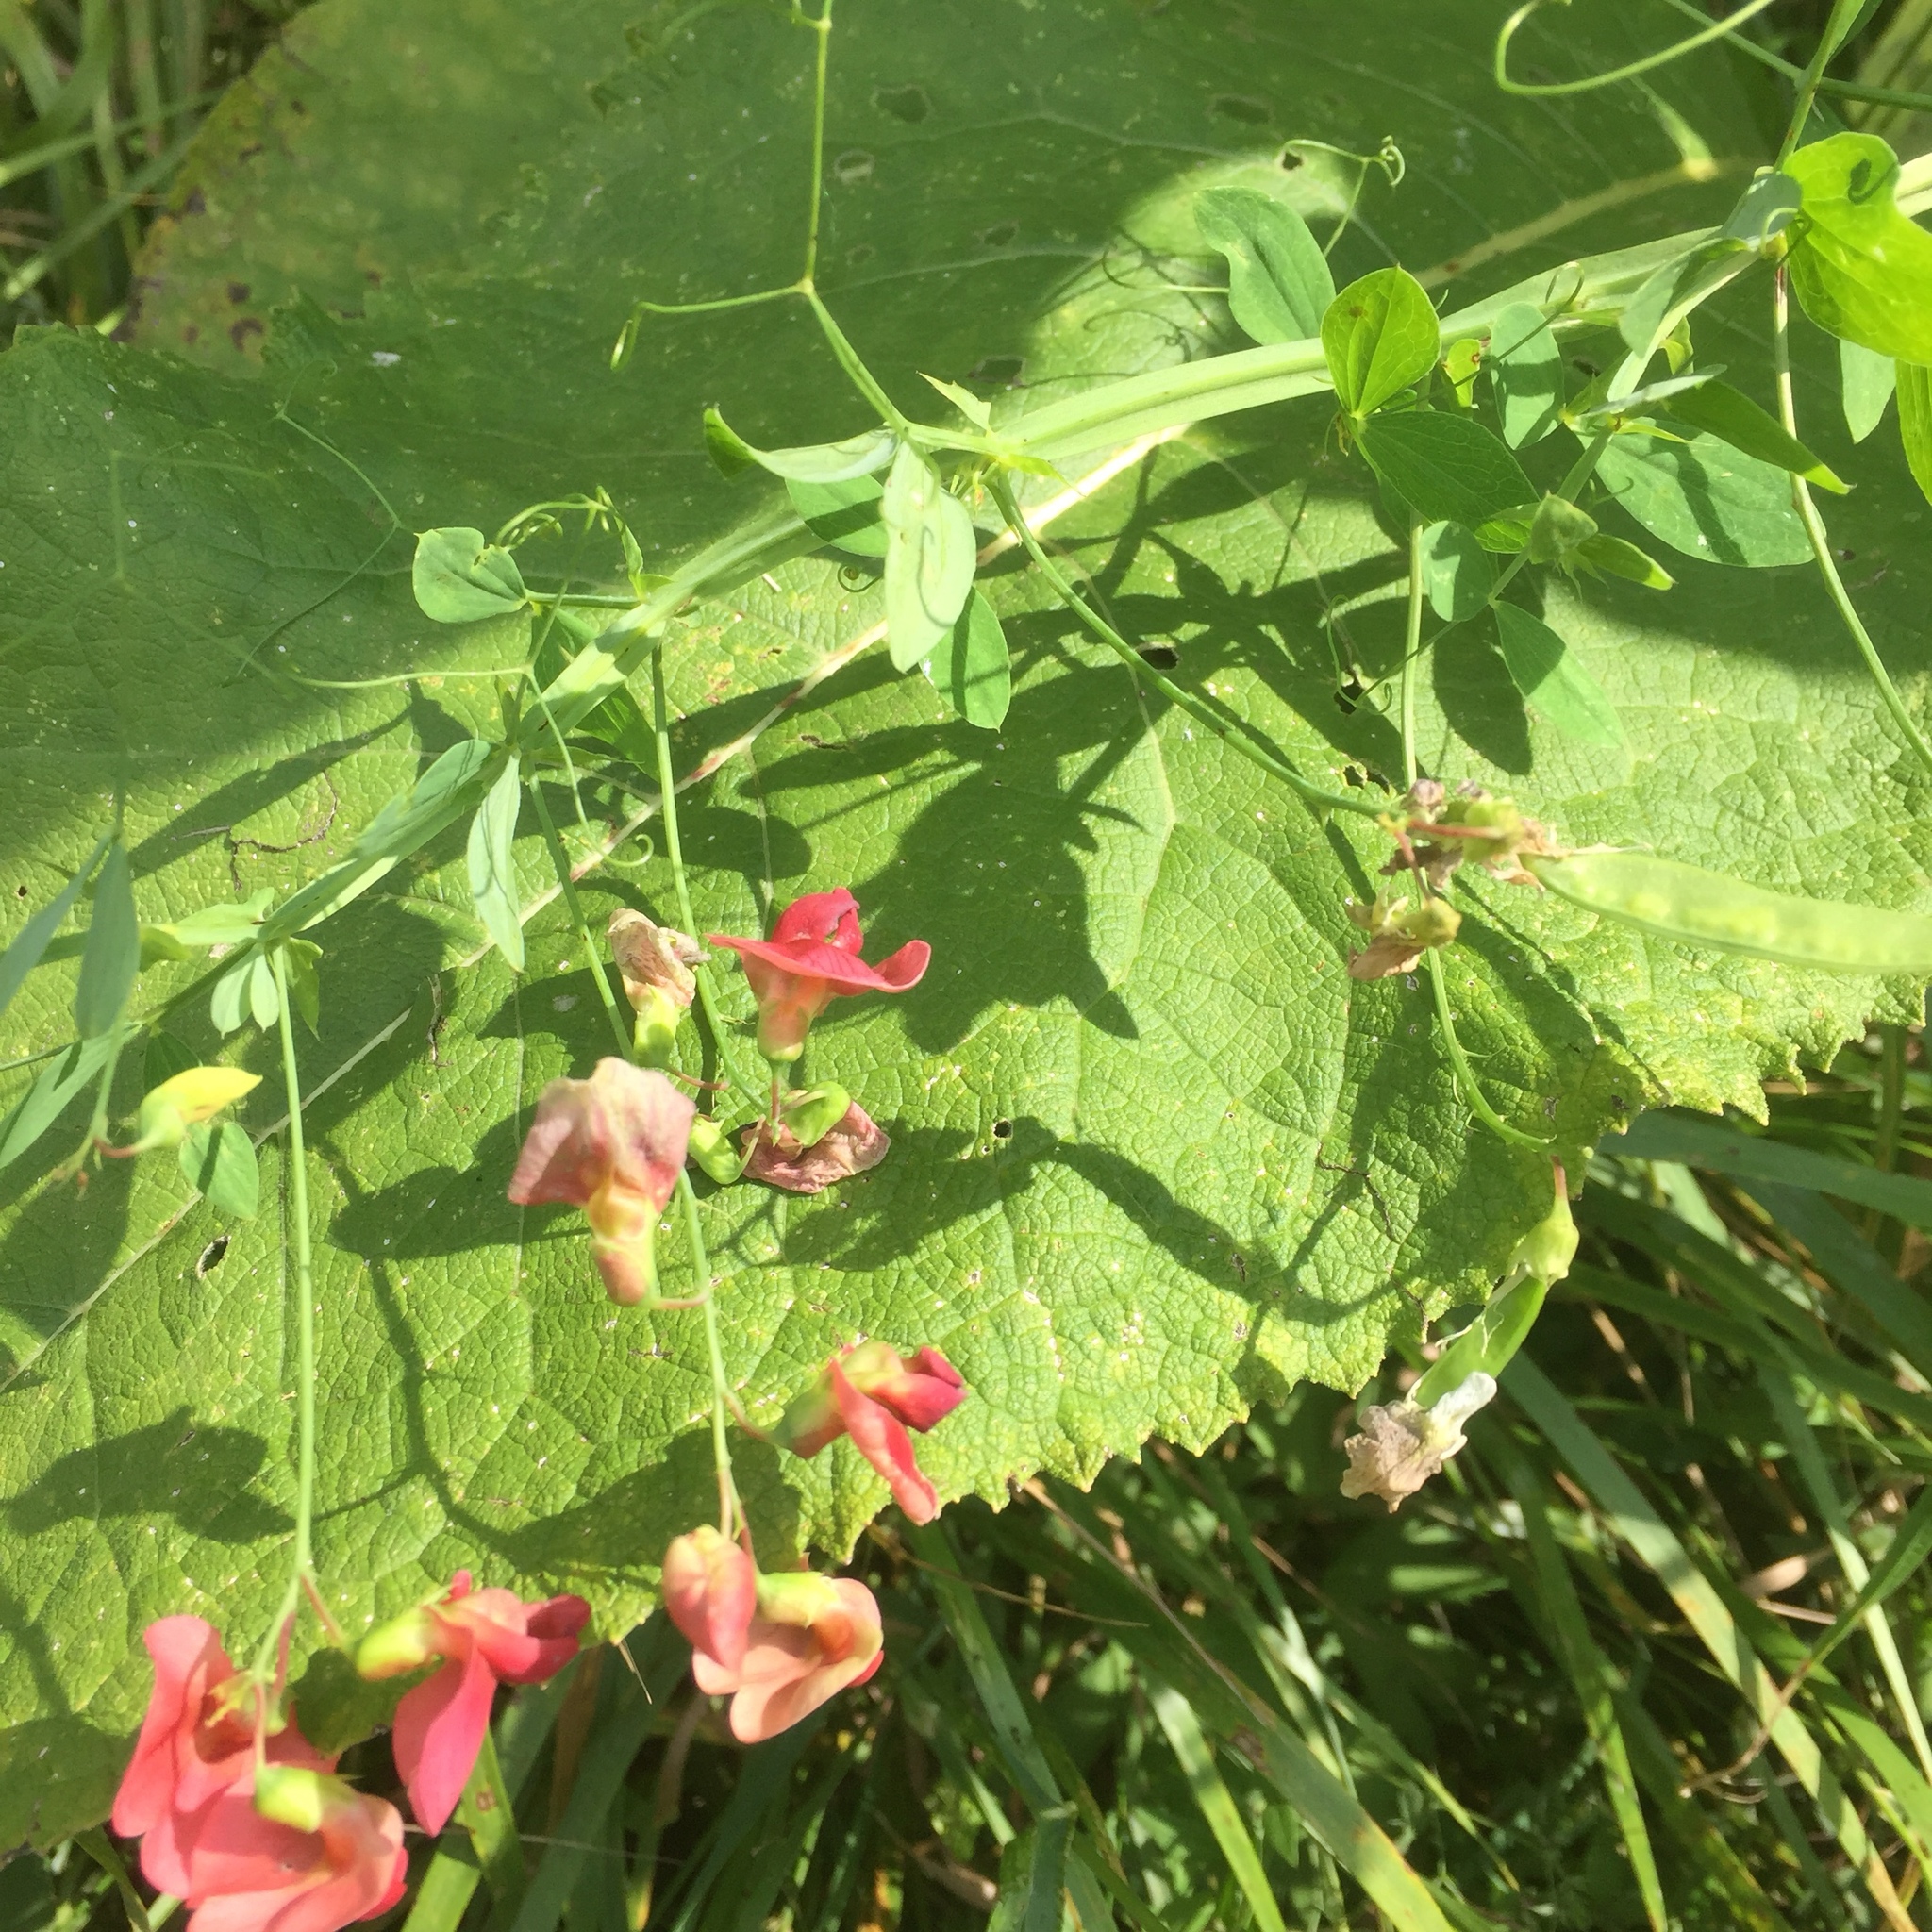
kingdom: Plantae
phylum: Tracheophyta
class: Magnoliopsida
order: Fabales
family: Fabaceae
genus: Lathyrus
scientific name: Lathyrus rotundifolius
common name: Round-leaf vetchling
